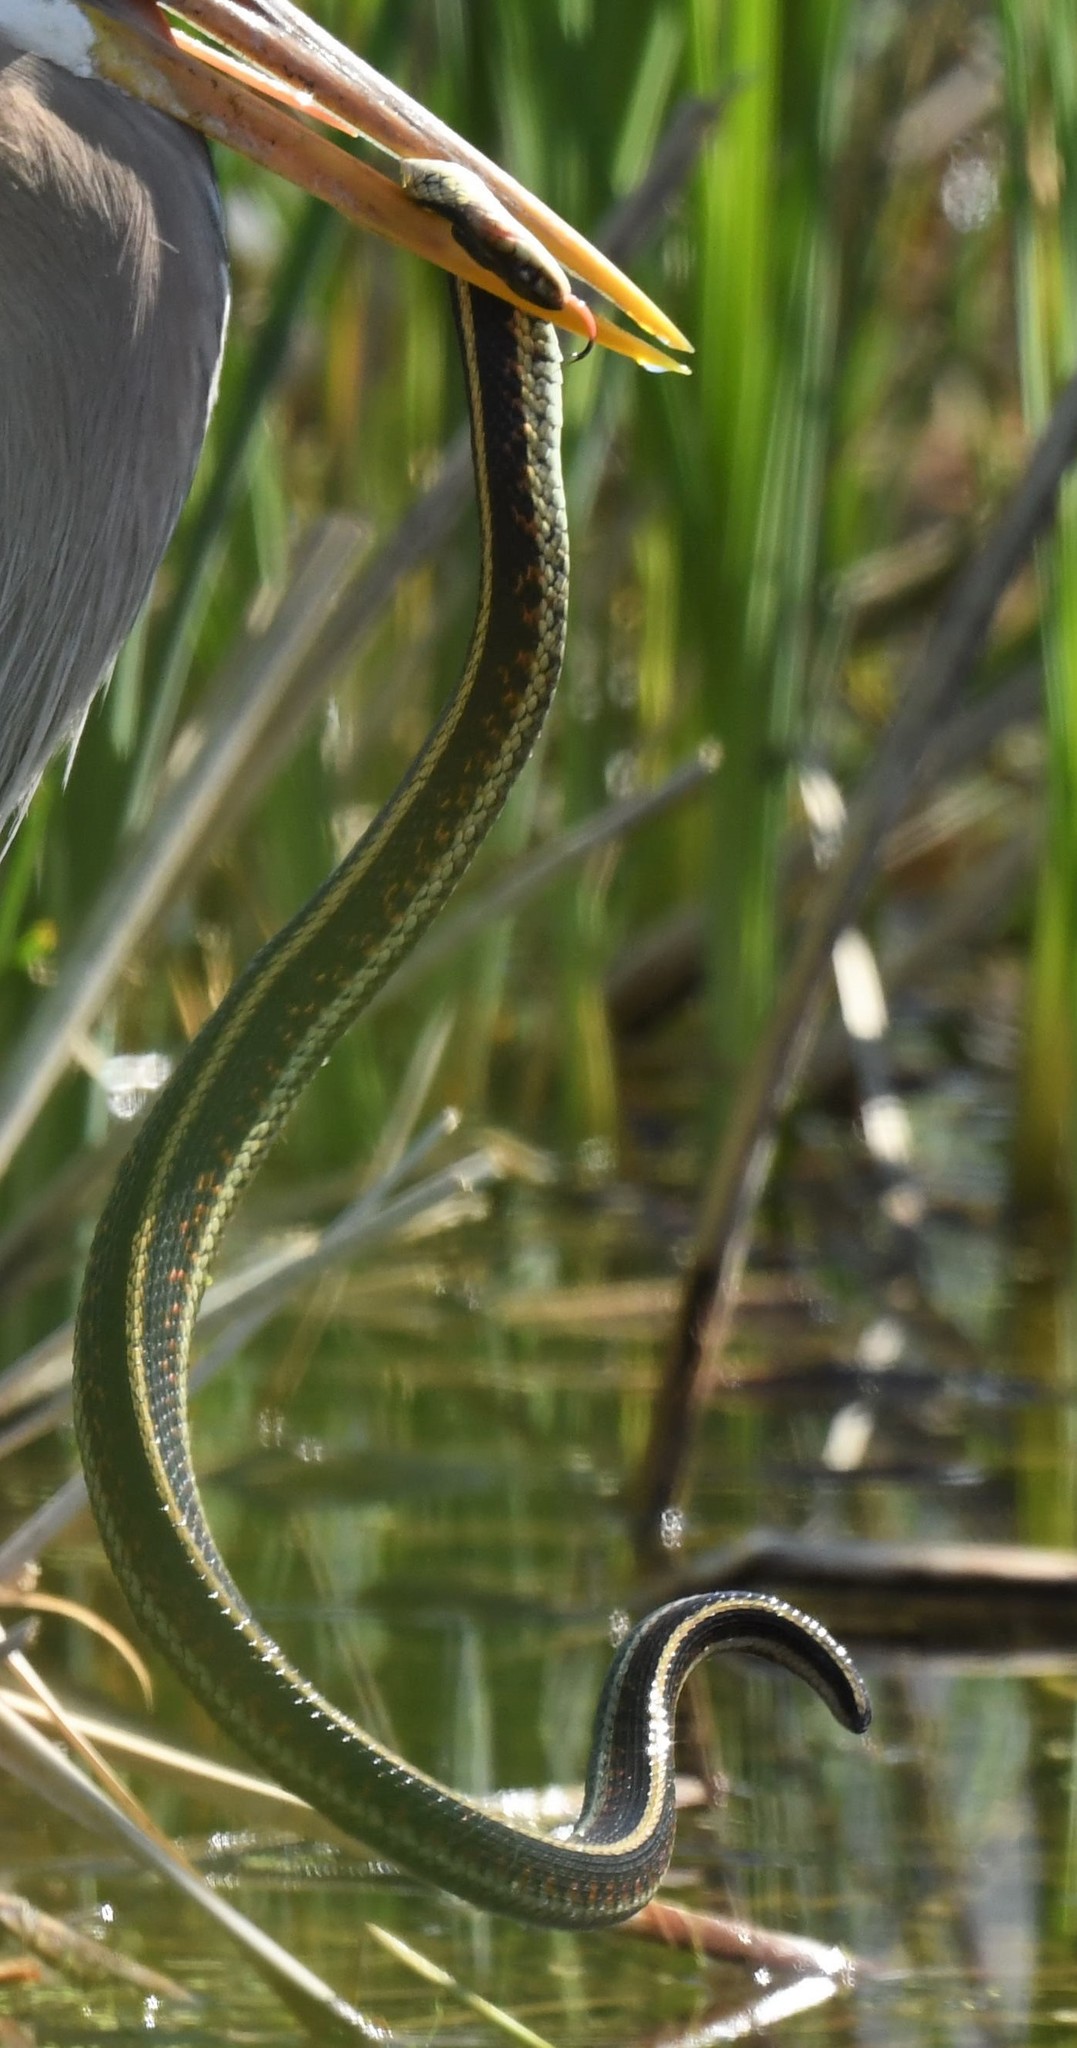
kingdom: Animalia
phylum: Chordata
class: Squamata
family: Colubridae
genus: Thamnophis
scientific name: Thamnophis sirtalis
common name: Common garter snake
